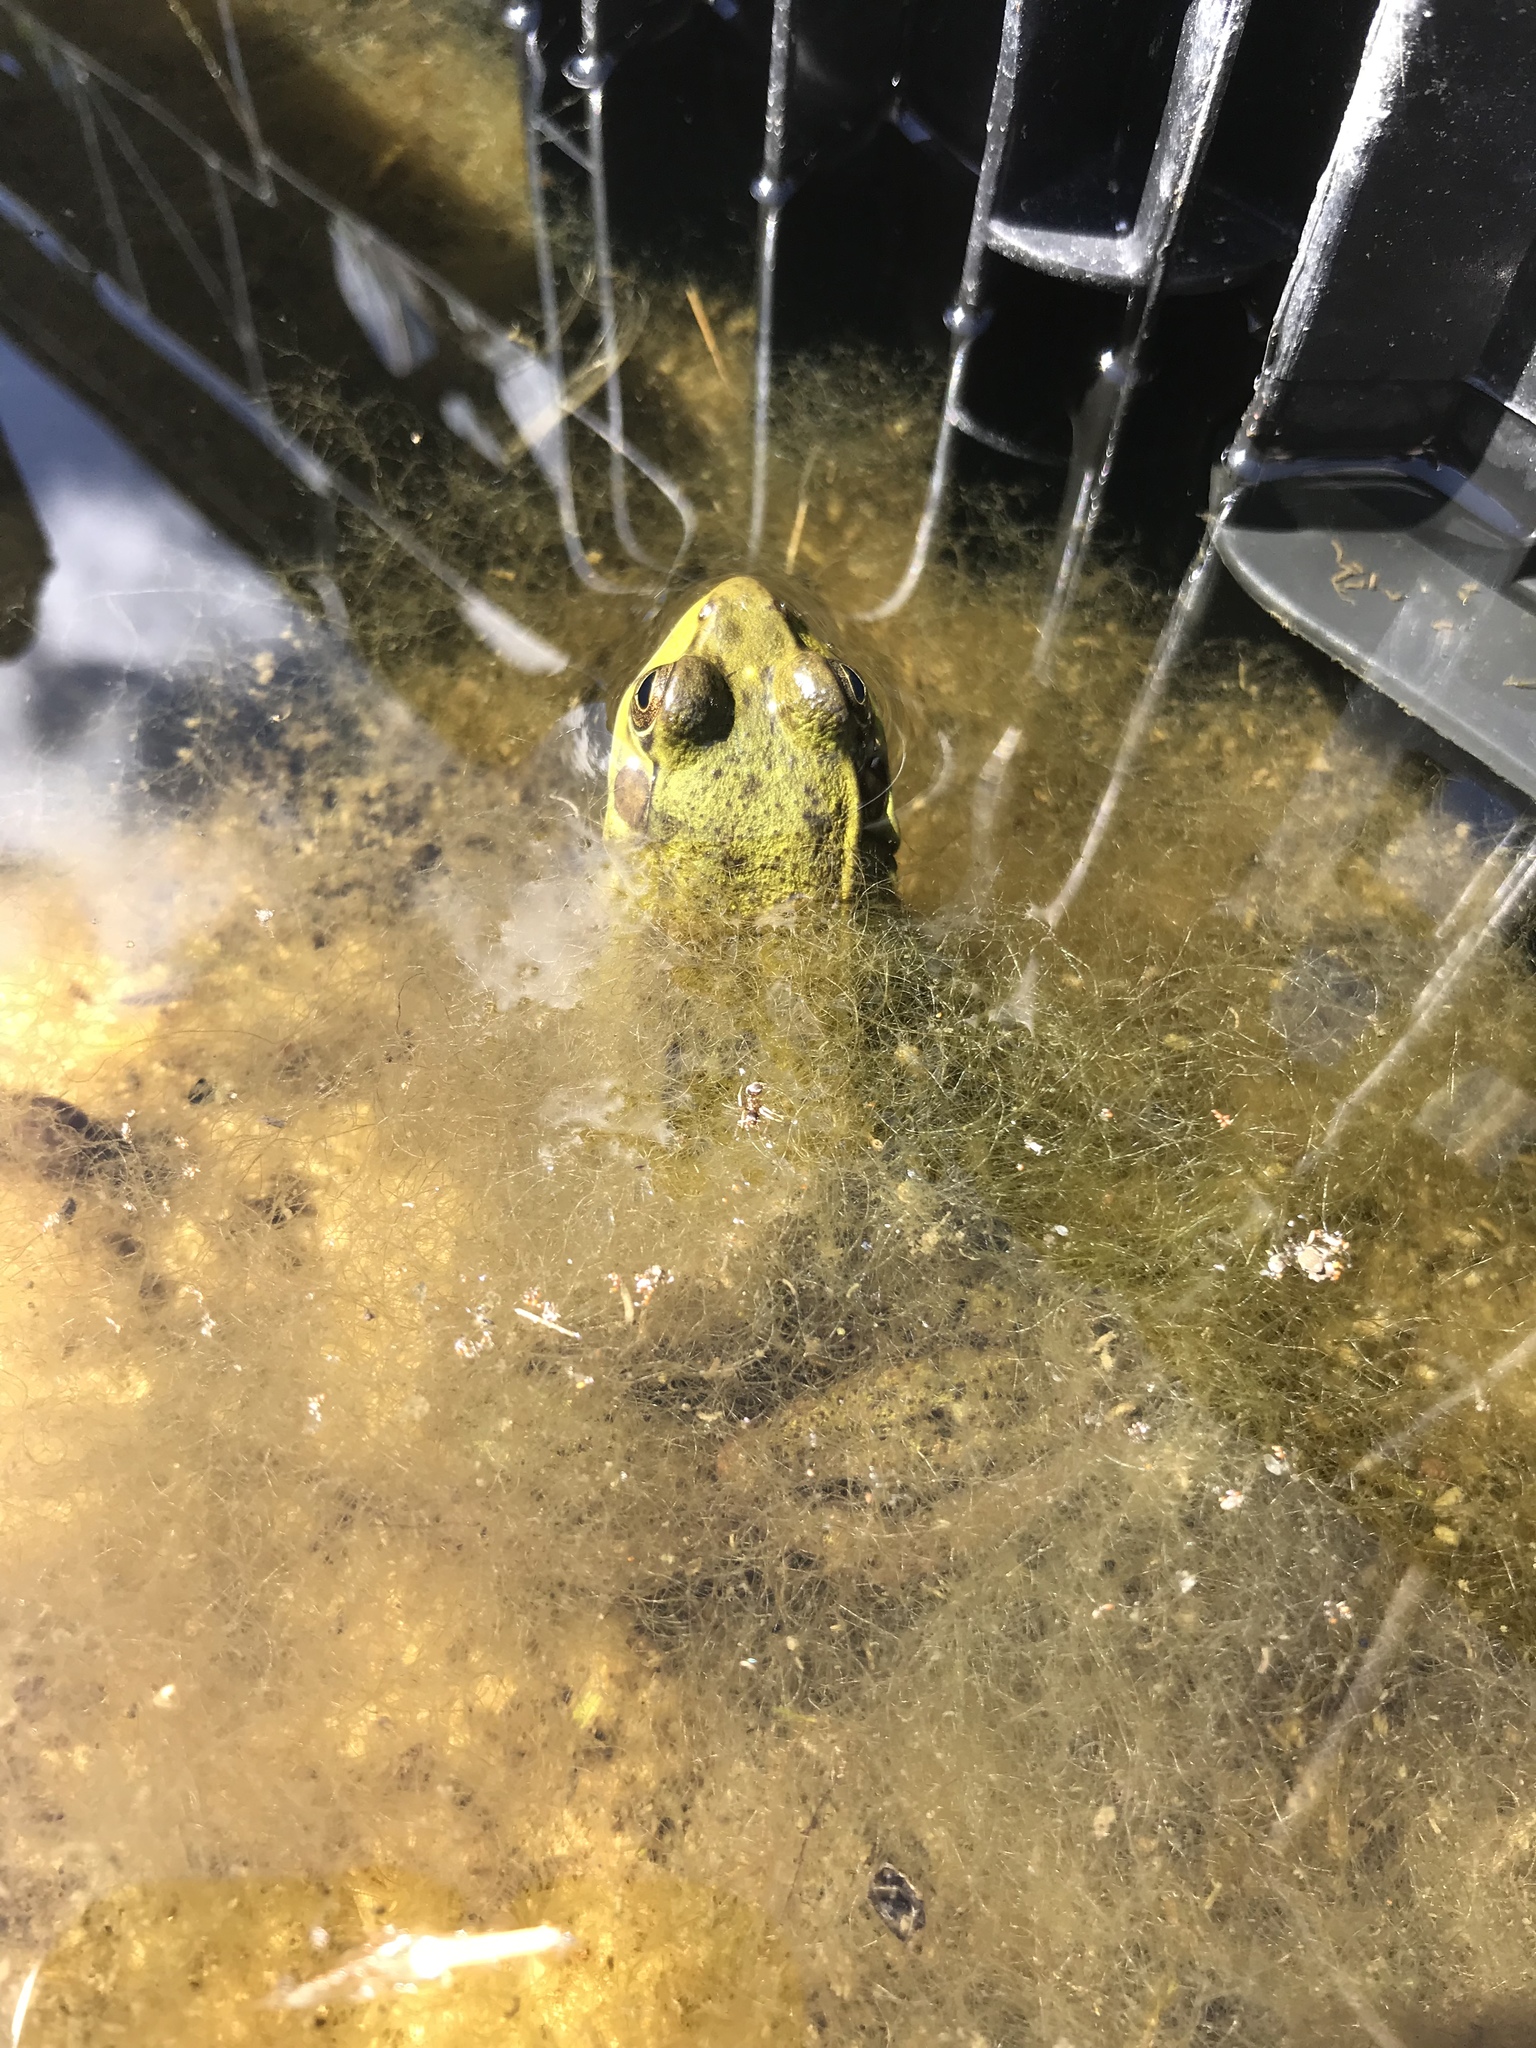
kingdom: Animalia
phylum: Chordata
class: Amphibia
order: Anura
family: Ranidae
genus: Lithobates
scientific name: Lithobates clamitans
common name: Green frog
